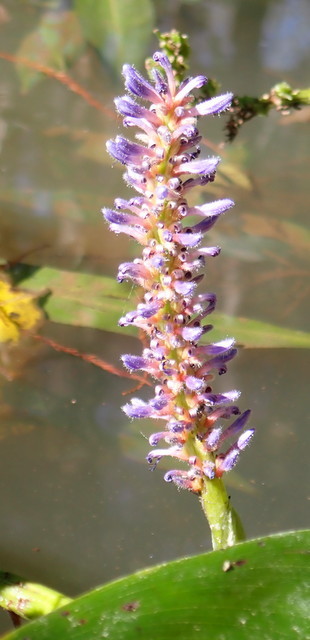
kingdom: Plantae
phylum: Tracheophyta
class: Liliopsida
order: Commelinales
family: Pontederiaceae
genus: Pontederia
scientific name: Pontederia cordata
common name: Pickerelweed
